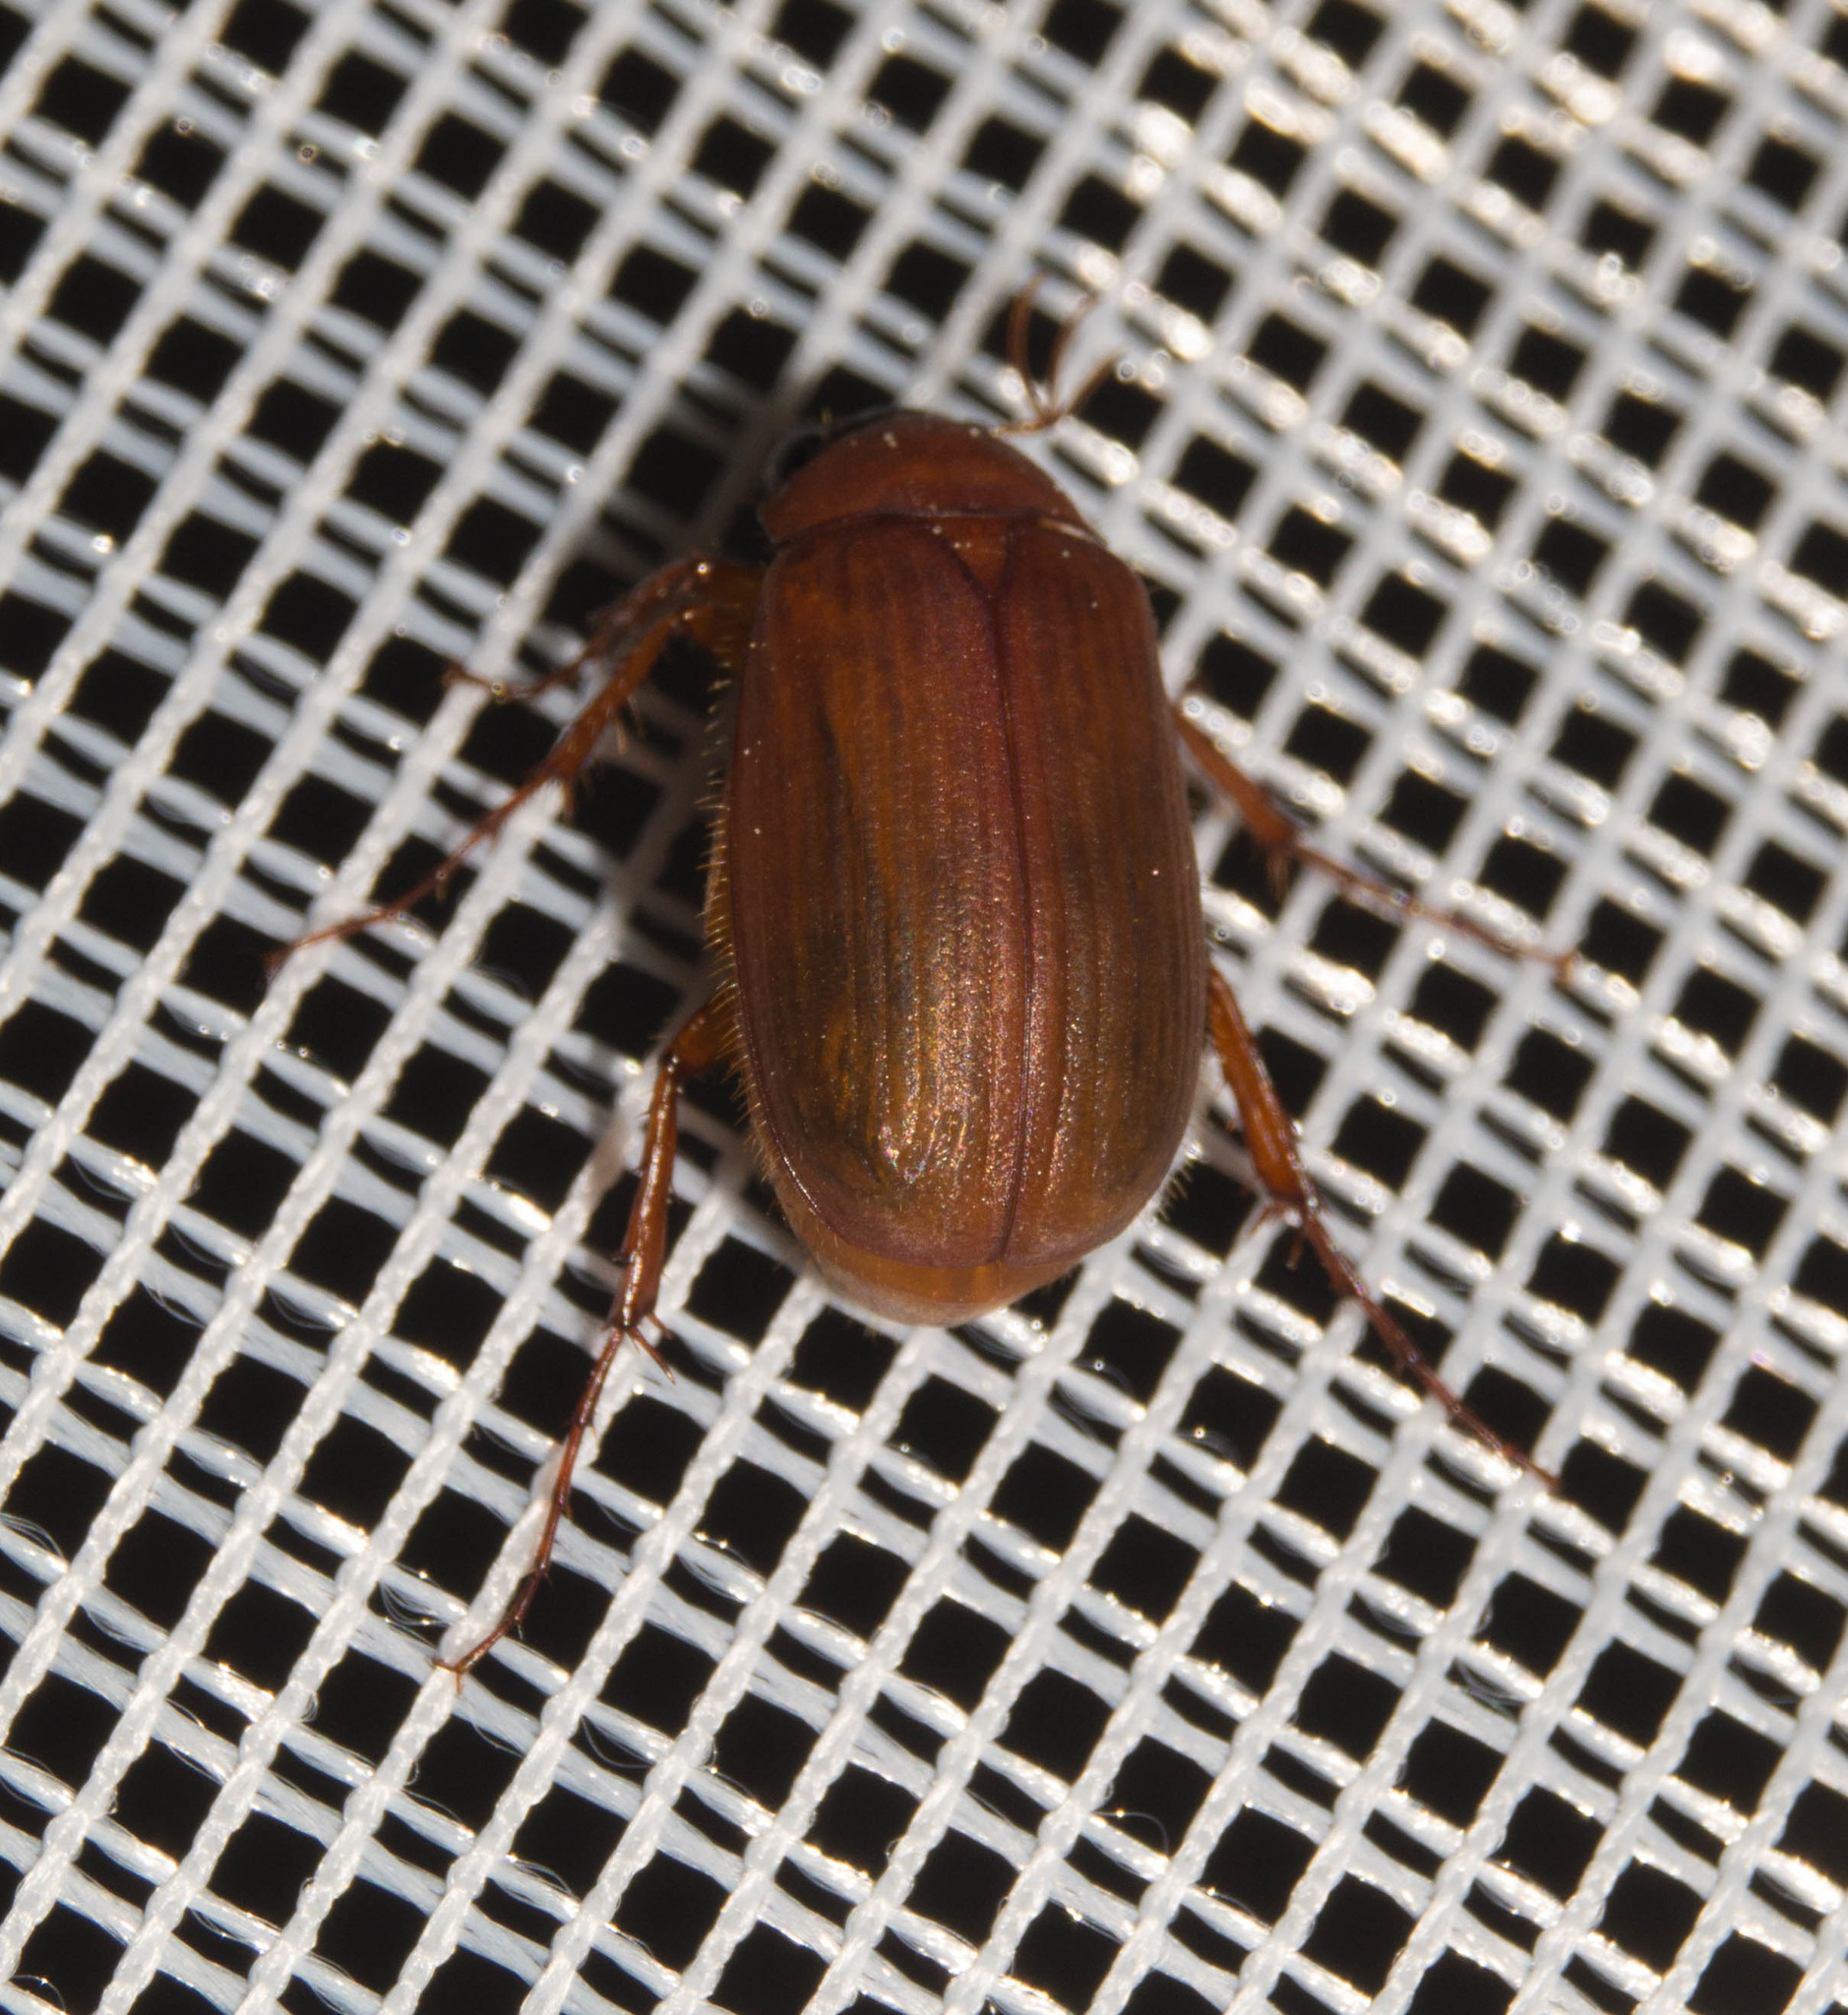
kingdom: Animalia
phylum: Arthropoda
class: Insecta
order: Coleoptera
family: Scarabaeidae
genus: Serica
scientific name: Serica brunnea
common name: Brown chafer
